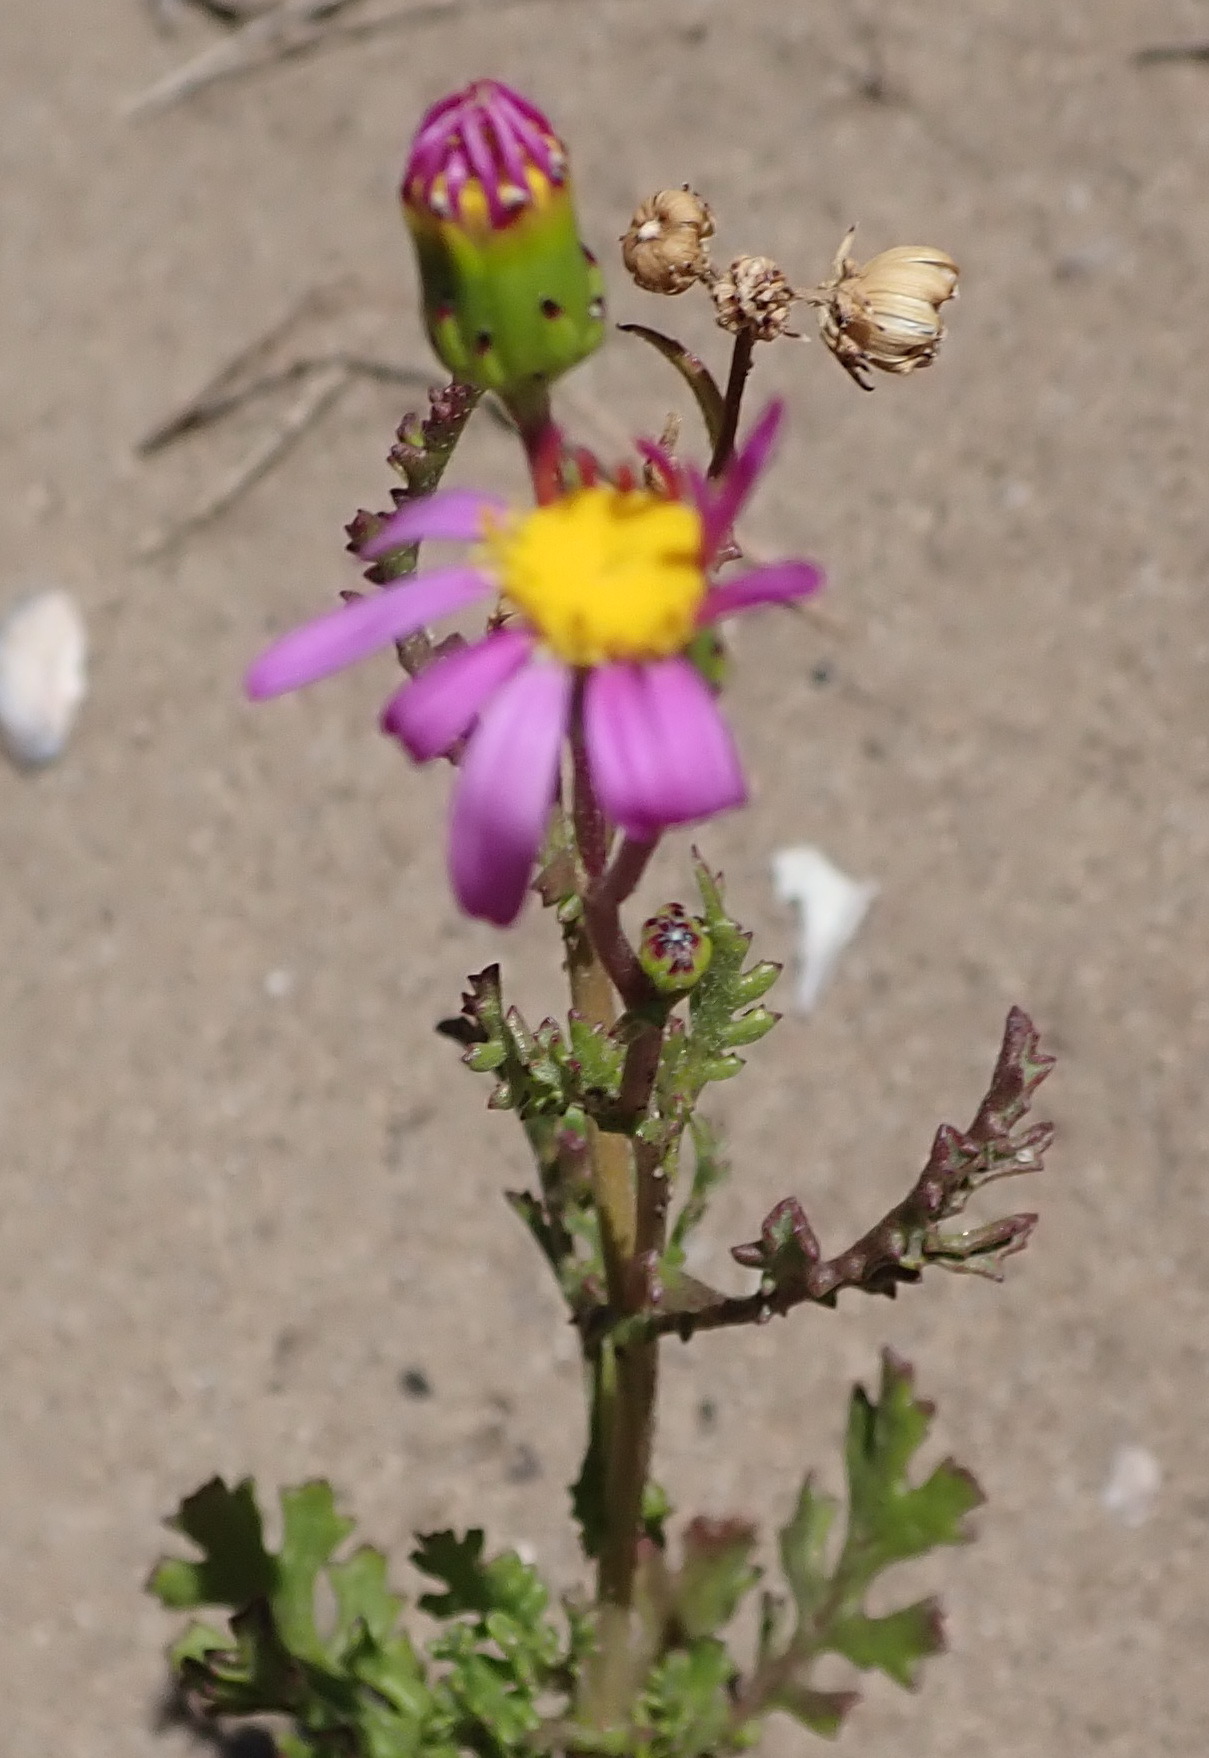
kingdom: Plantae
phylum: Tracheophyta
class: Magnoliopsida
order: Asterales
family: Asteraceae
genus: Senecio
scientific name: Senecio elegans
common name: Purple groundsel
